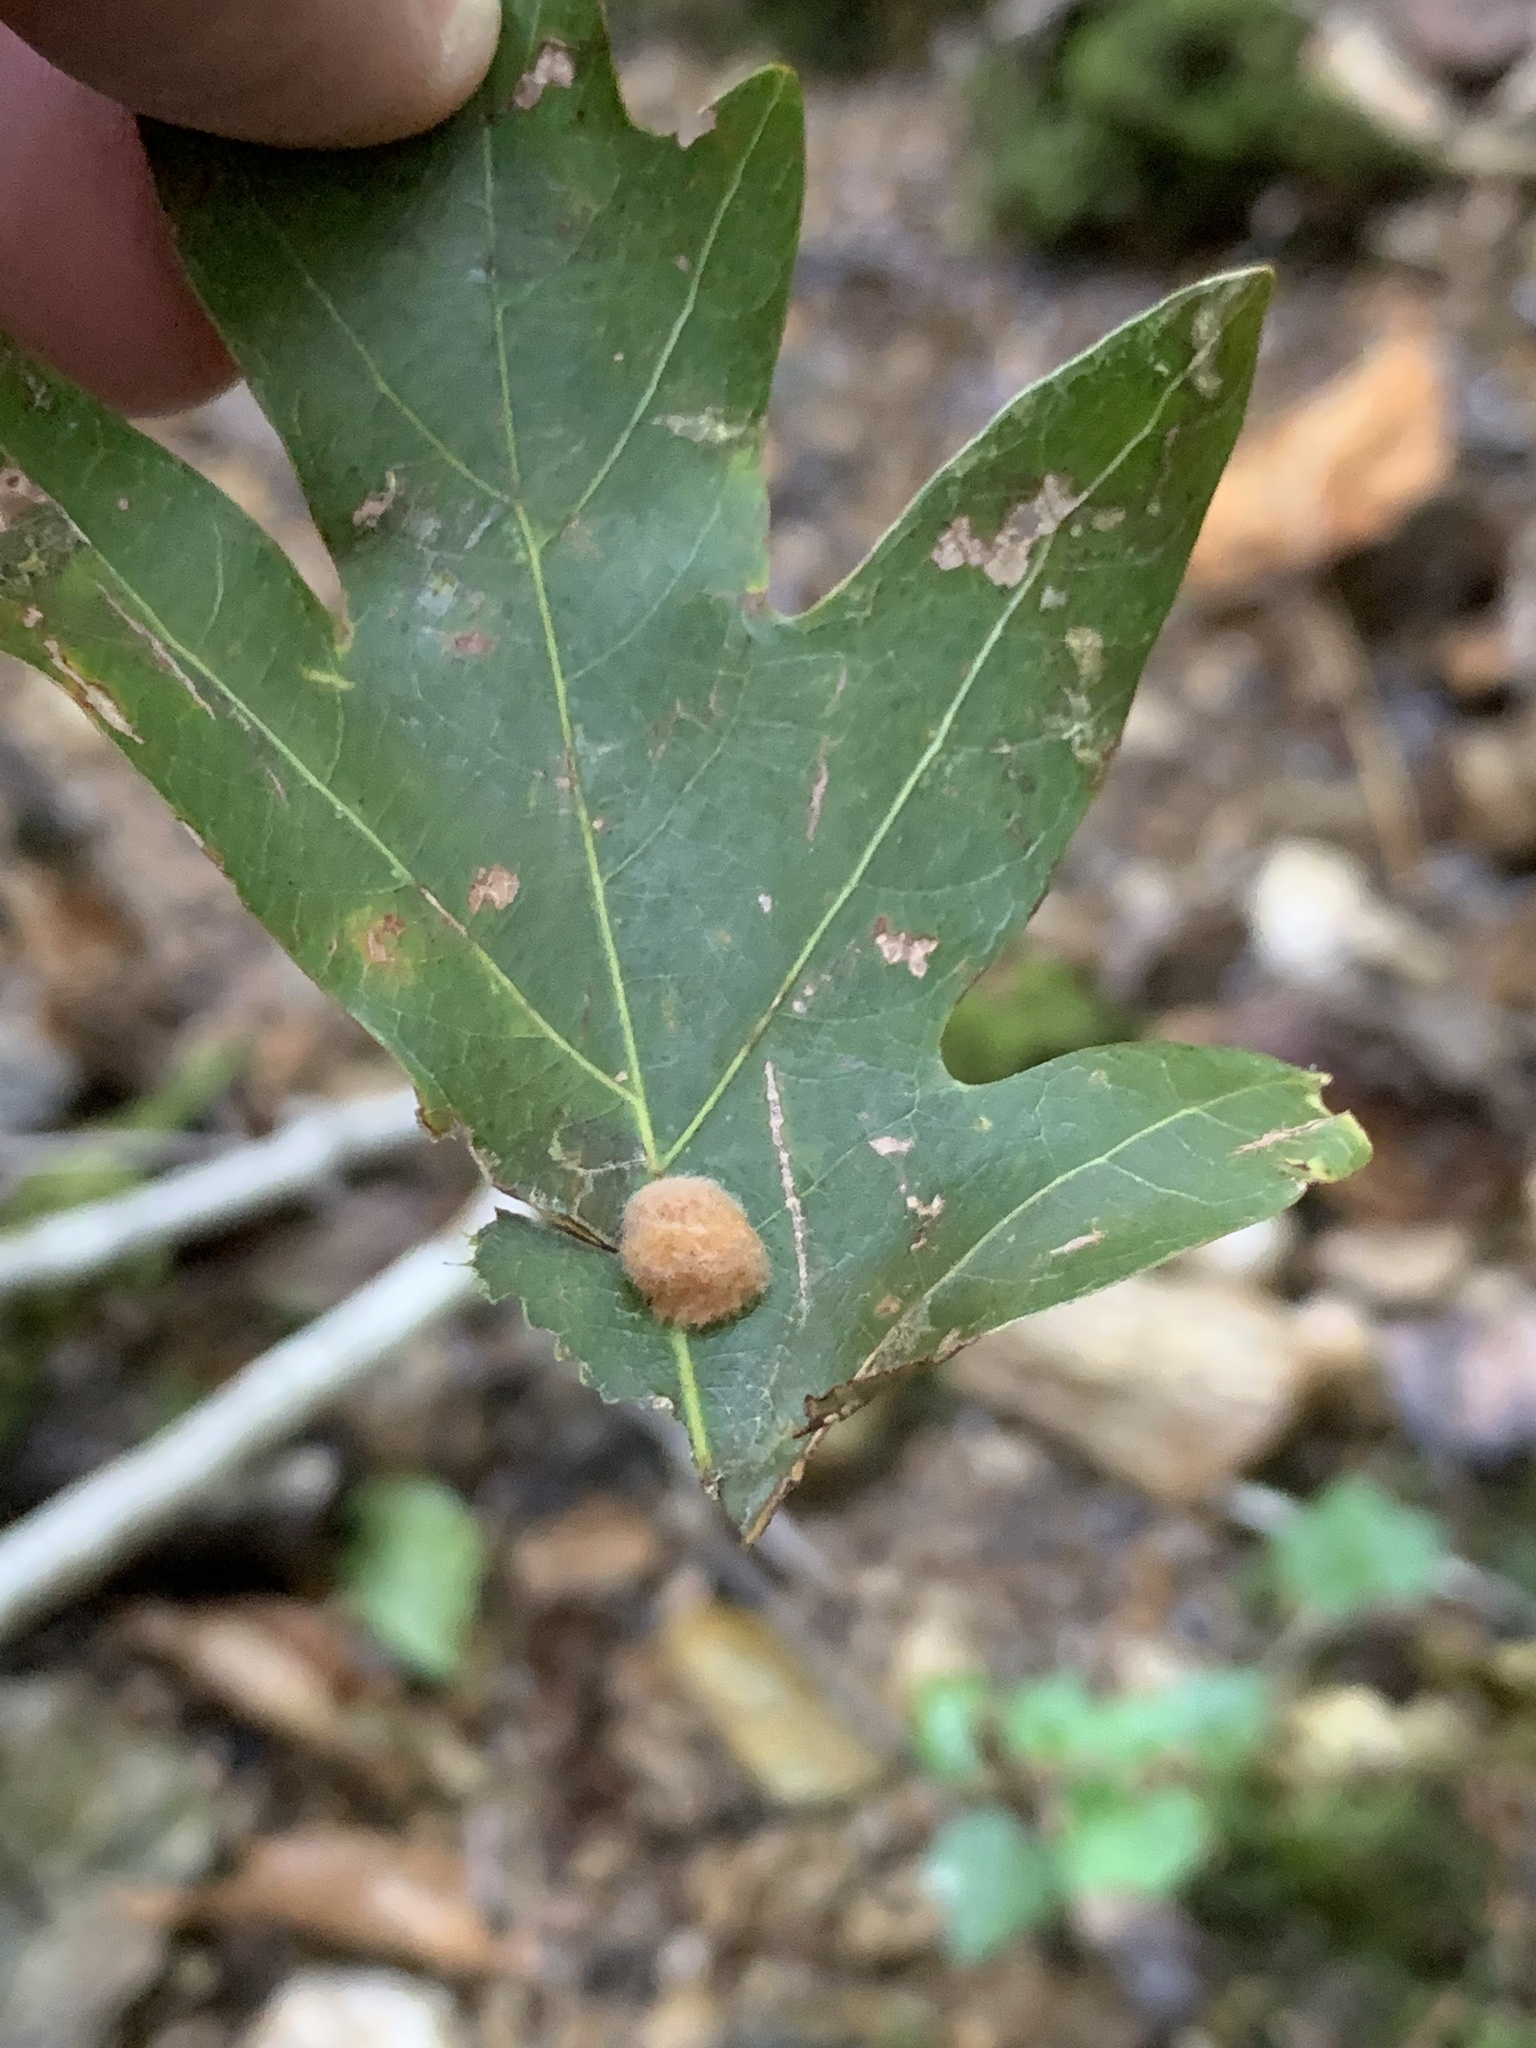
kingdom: Animalia
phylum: Arthropoda
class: Insecta
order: Hymenoptera
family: Cynipidae
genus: Andricus
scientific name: Andricus quercusflocci
